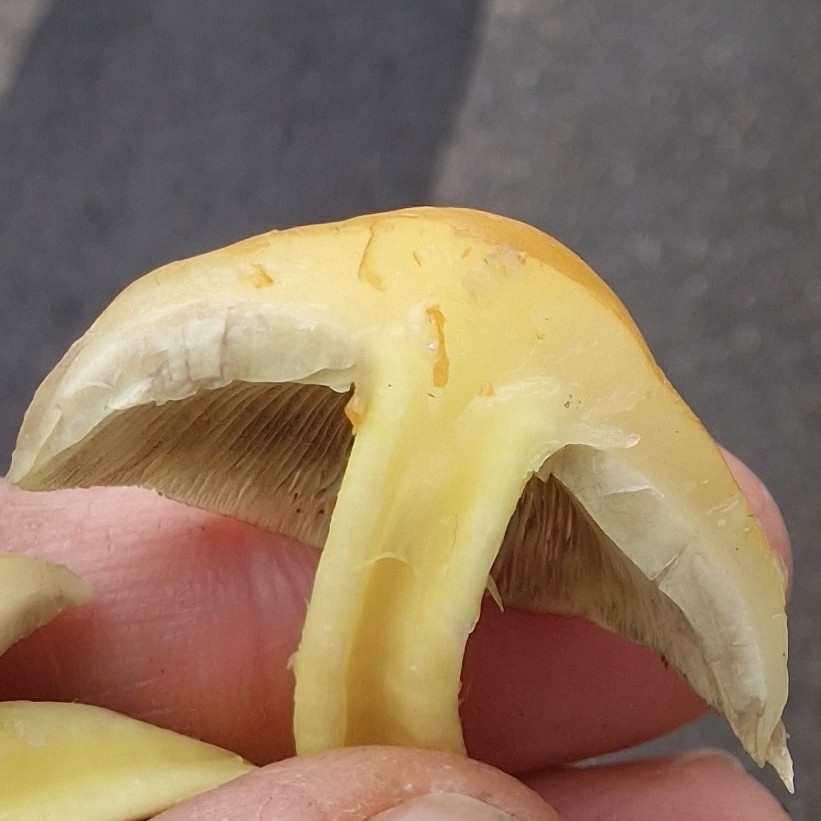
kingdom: Fungi
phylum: Basidiomycota
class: Agaricomycetes
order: Agaricales
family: Strophariaceae
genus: Hypholoma
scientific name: Hypholoma fasciculare
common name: Sulphur tuft
